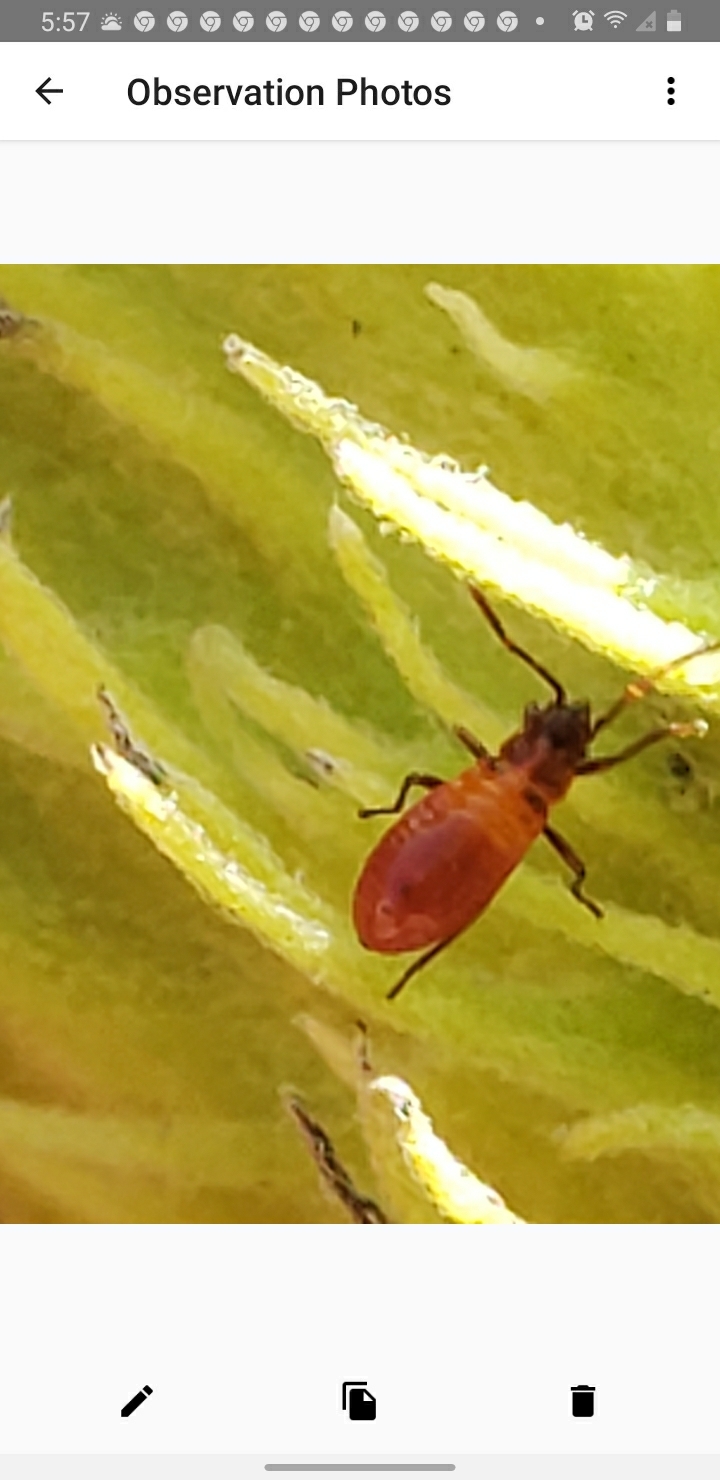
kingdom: Animalia
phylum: Arthropoda
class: Insecta
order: Hemiptera
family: Lygaeidae
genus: Oncopeltus
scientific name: Oncopeltus fasciatus
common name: Large milkweed bug
